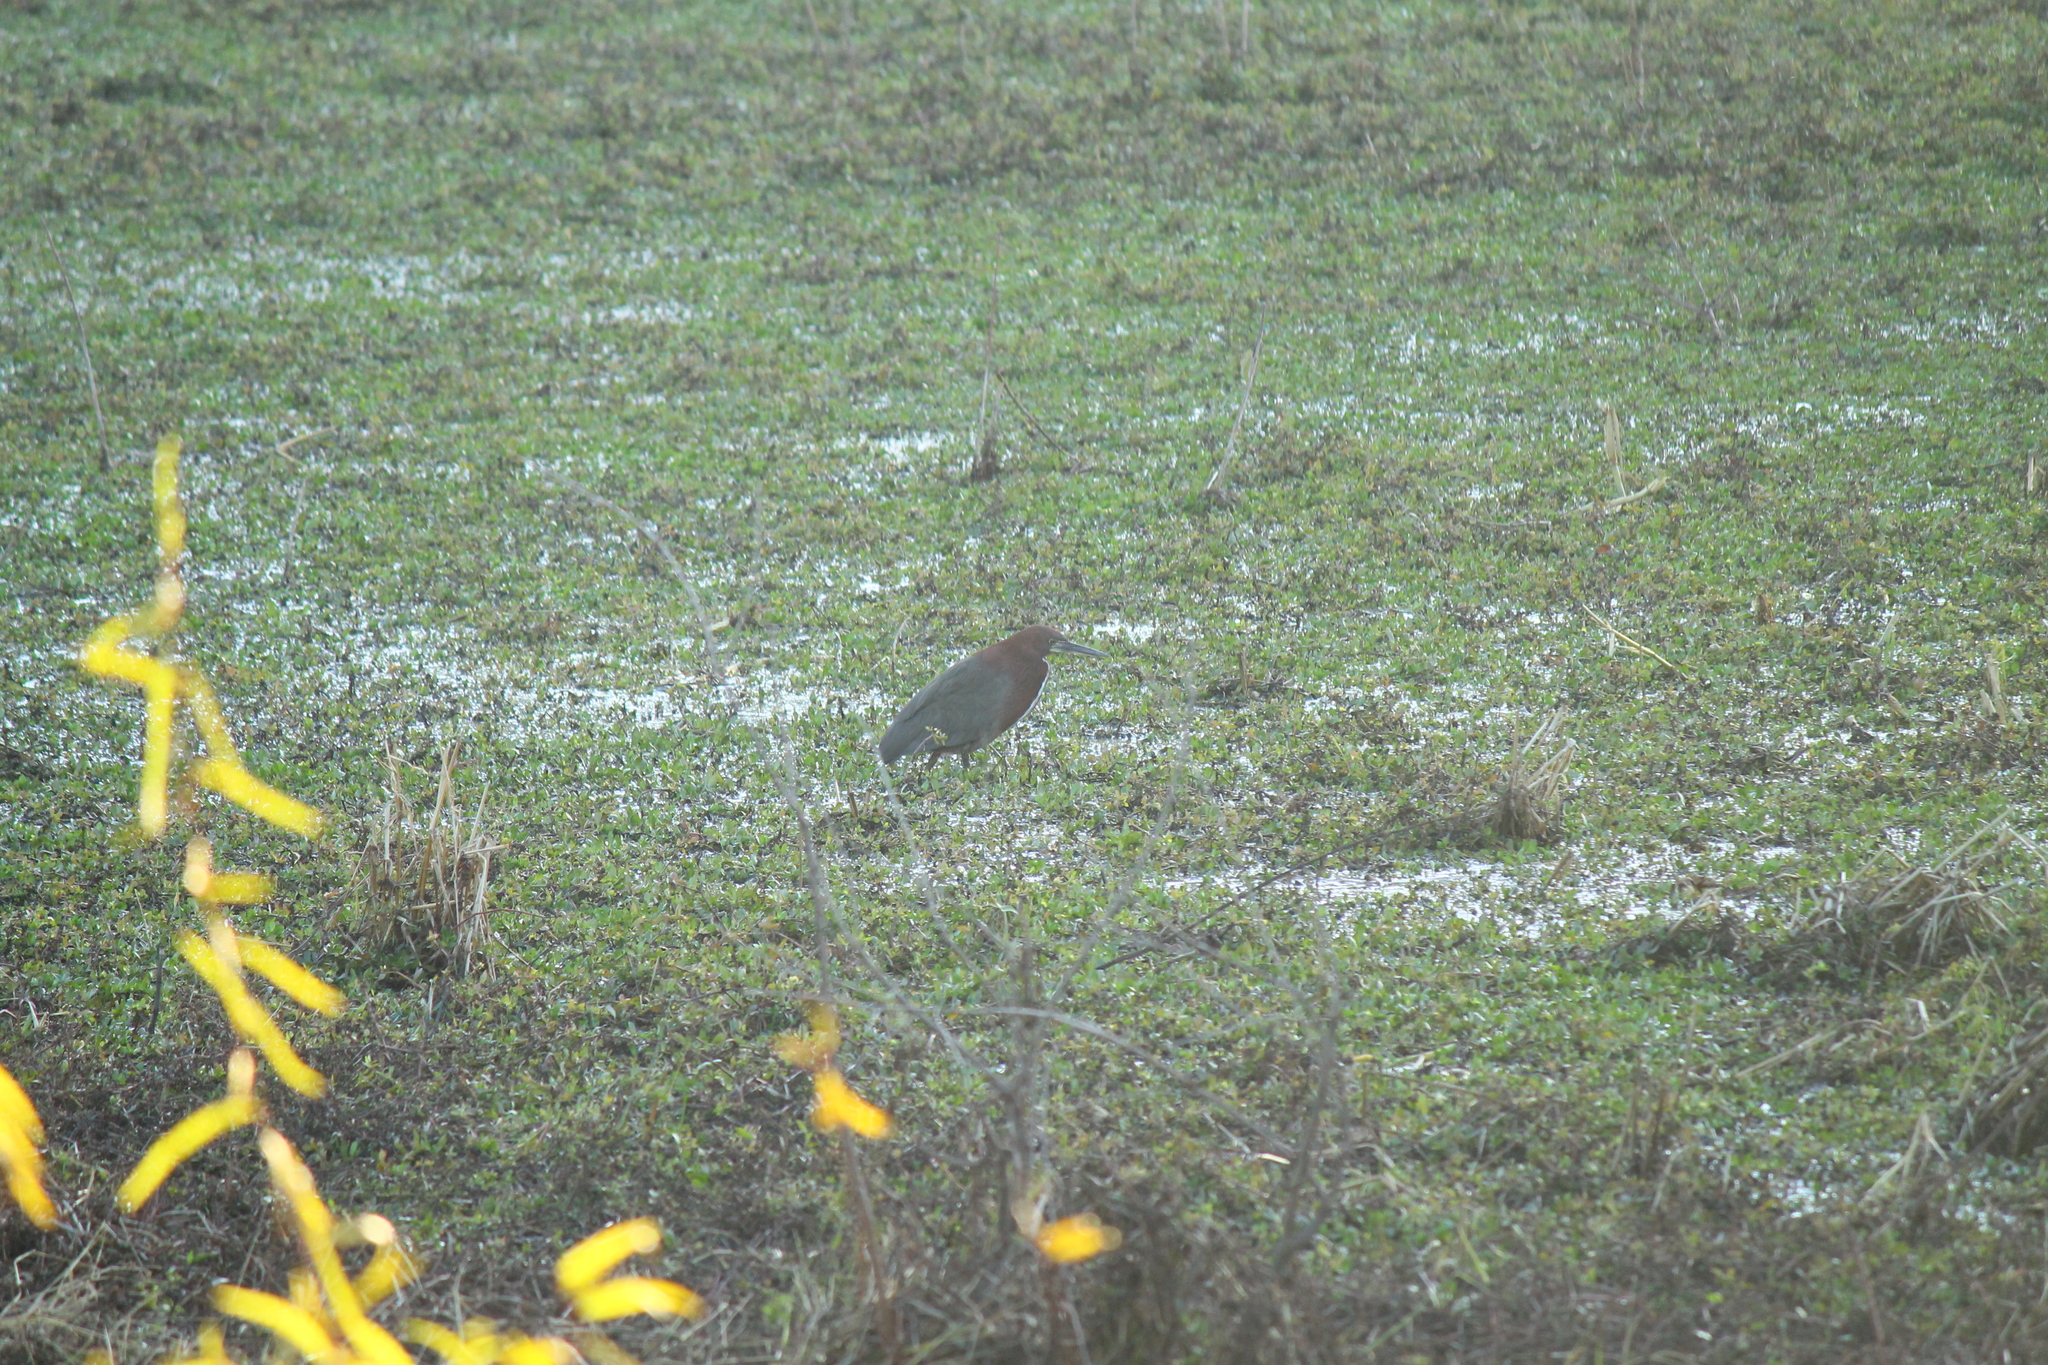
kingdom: Animalia
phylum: Chordata
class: Aves
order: Pelecaniformes
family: Ardeidae
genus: Tigrisoma
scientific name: Tigrisoma lineatum
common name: Rufescent tiger-heron
